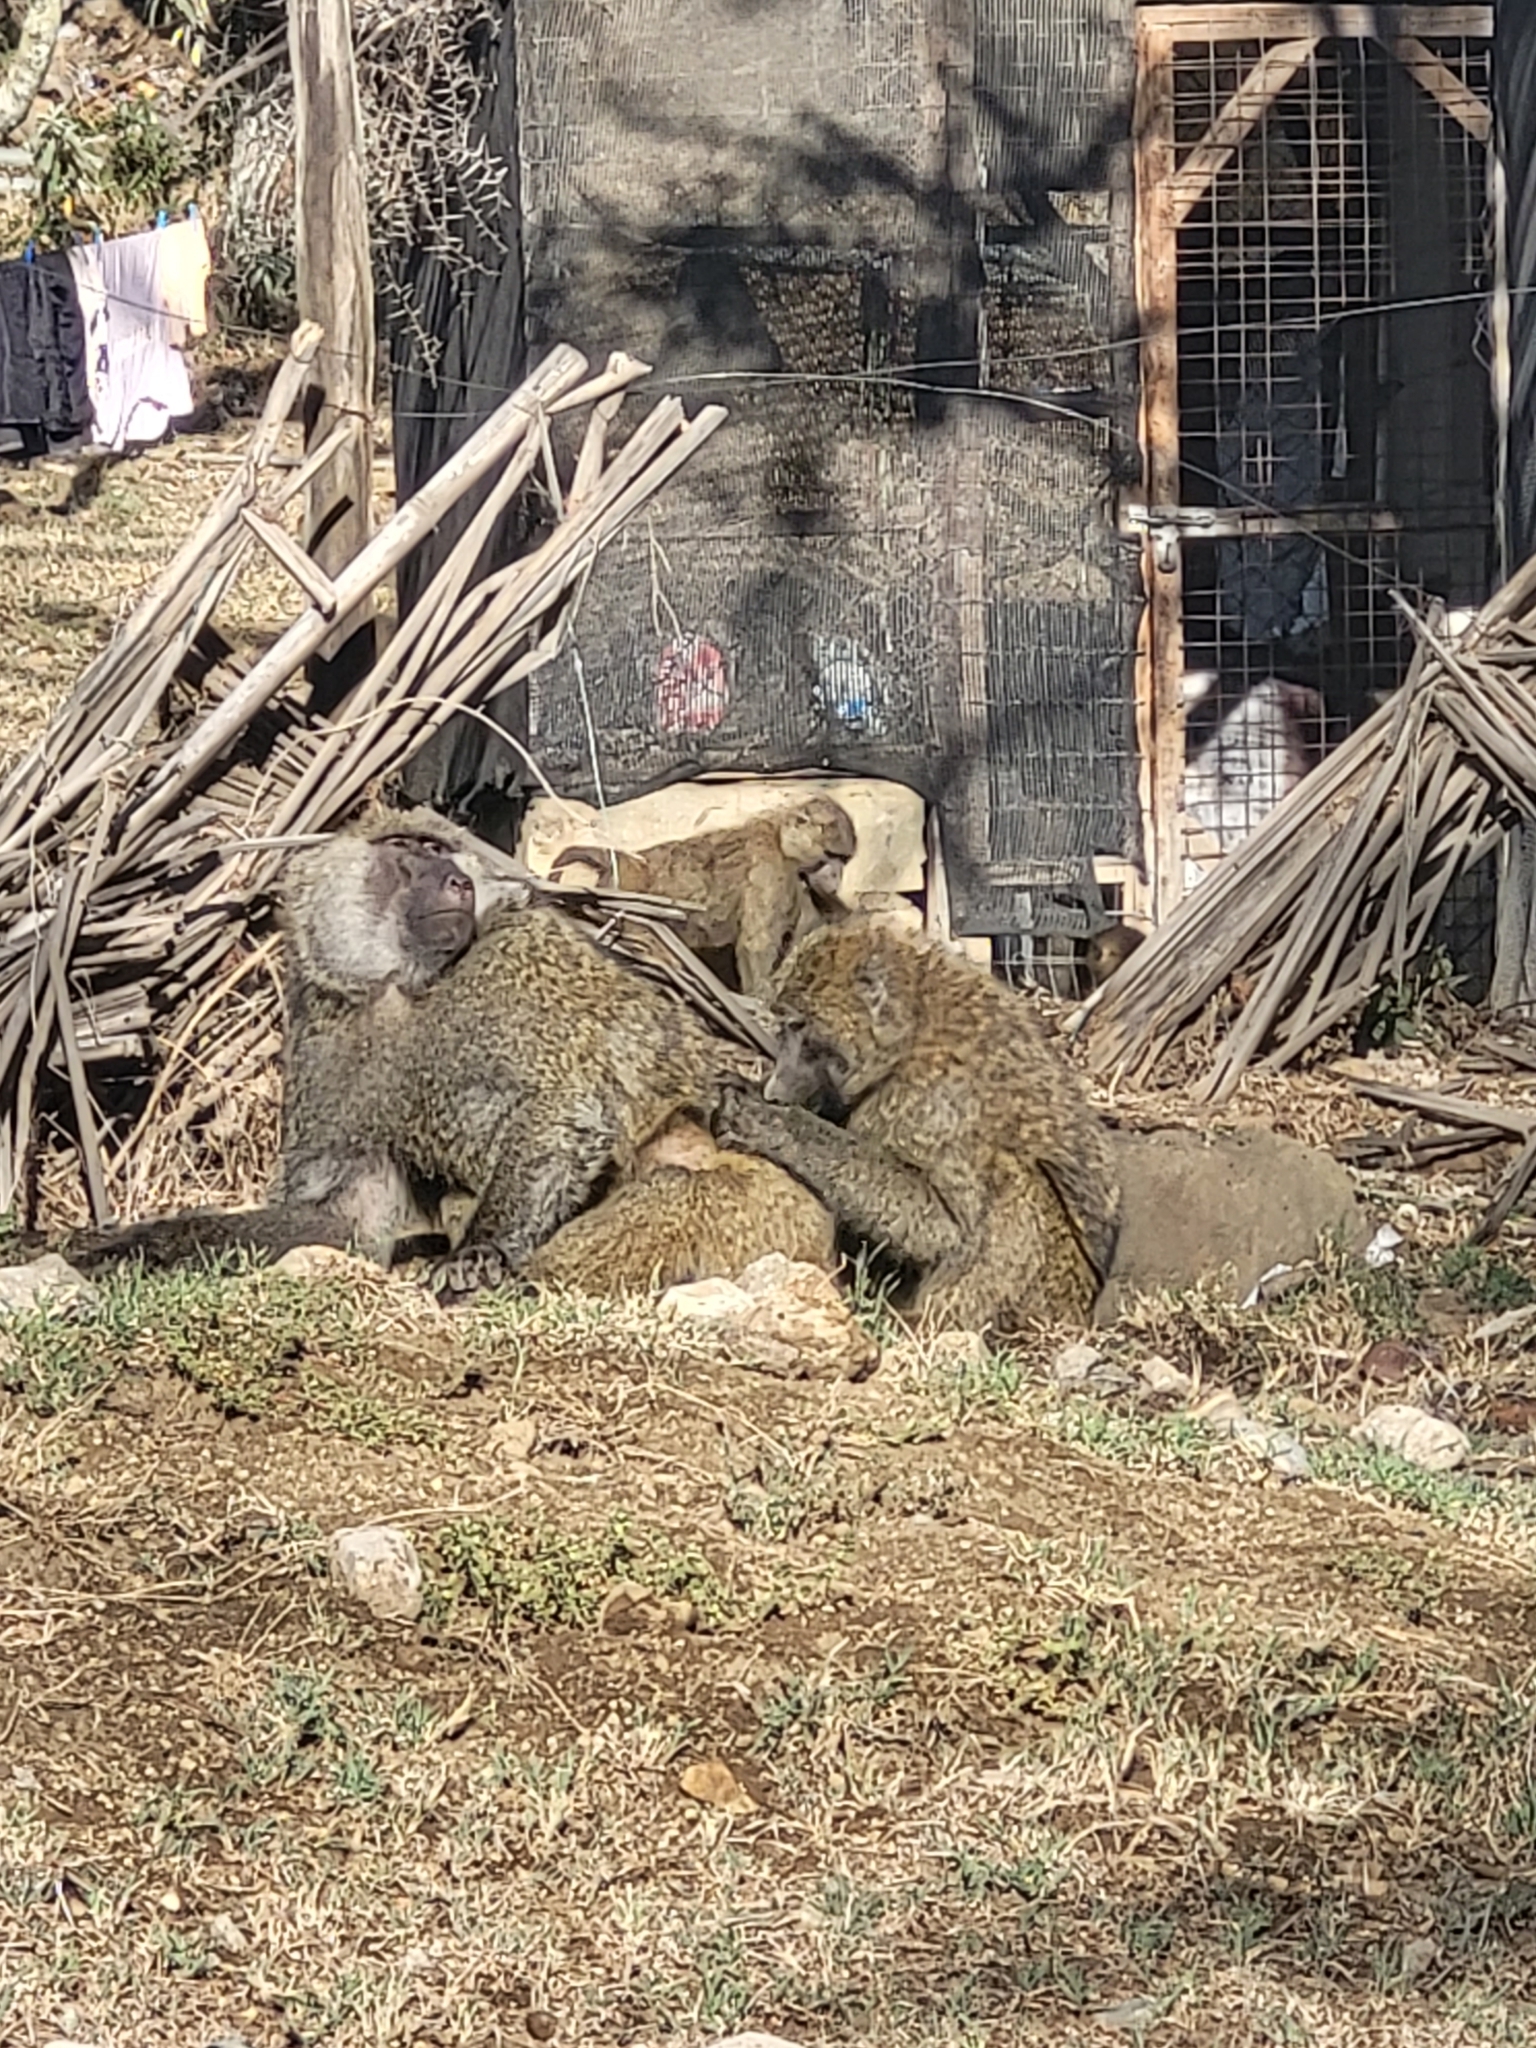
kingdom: Animalia
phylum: Chordata
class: Mammalia
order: Primates
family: Cercopithecidae
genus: Papio
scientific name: Papio anubis
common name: Olive baboon
